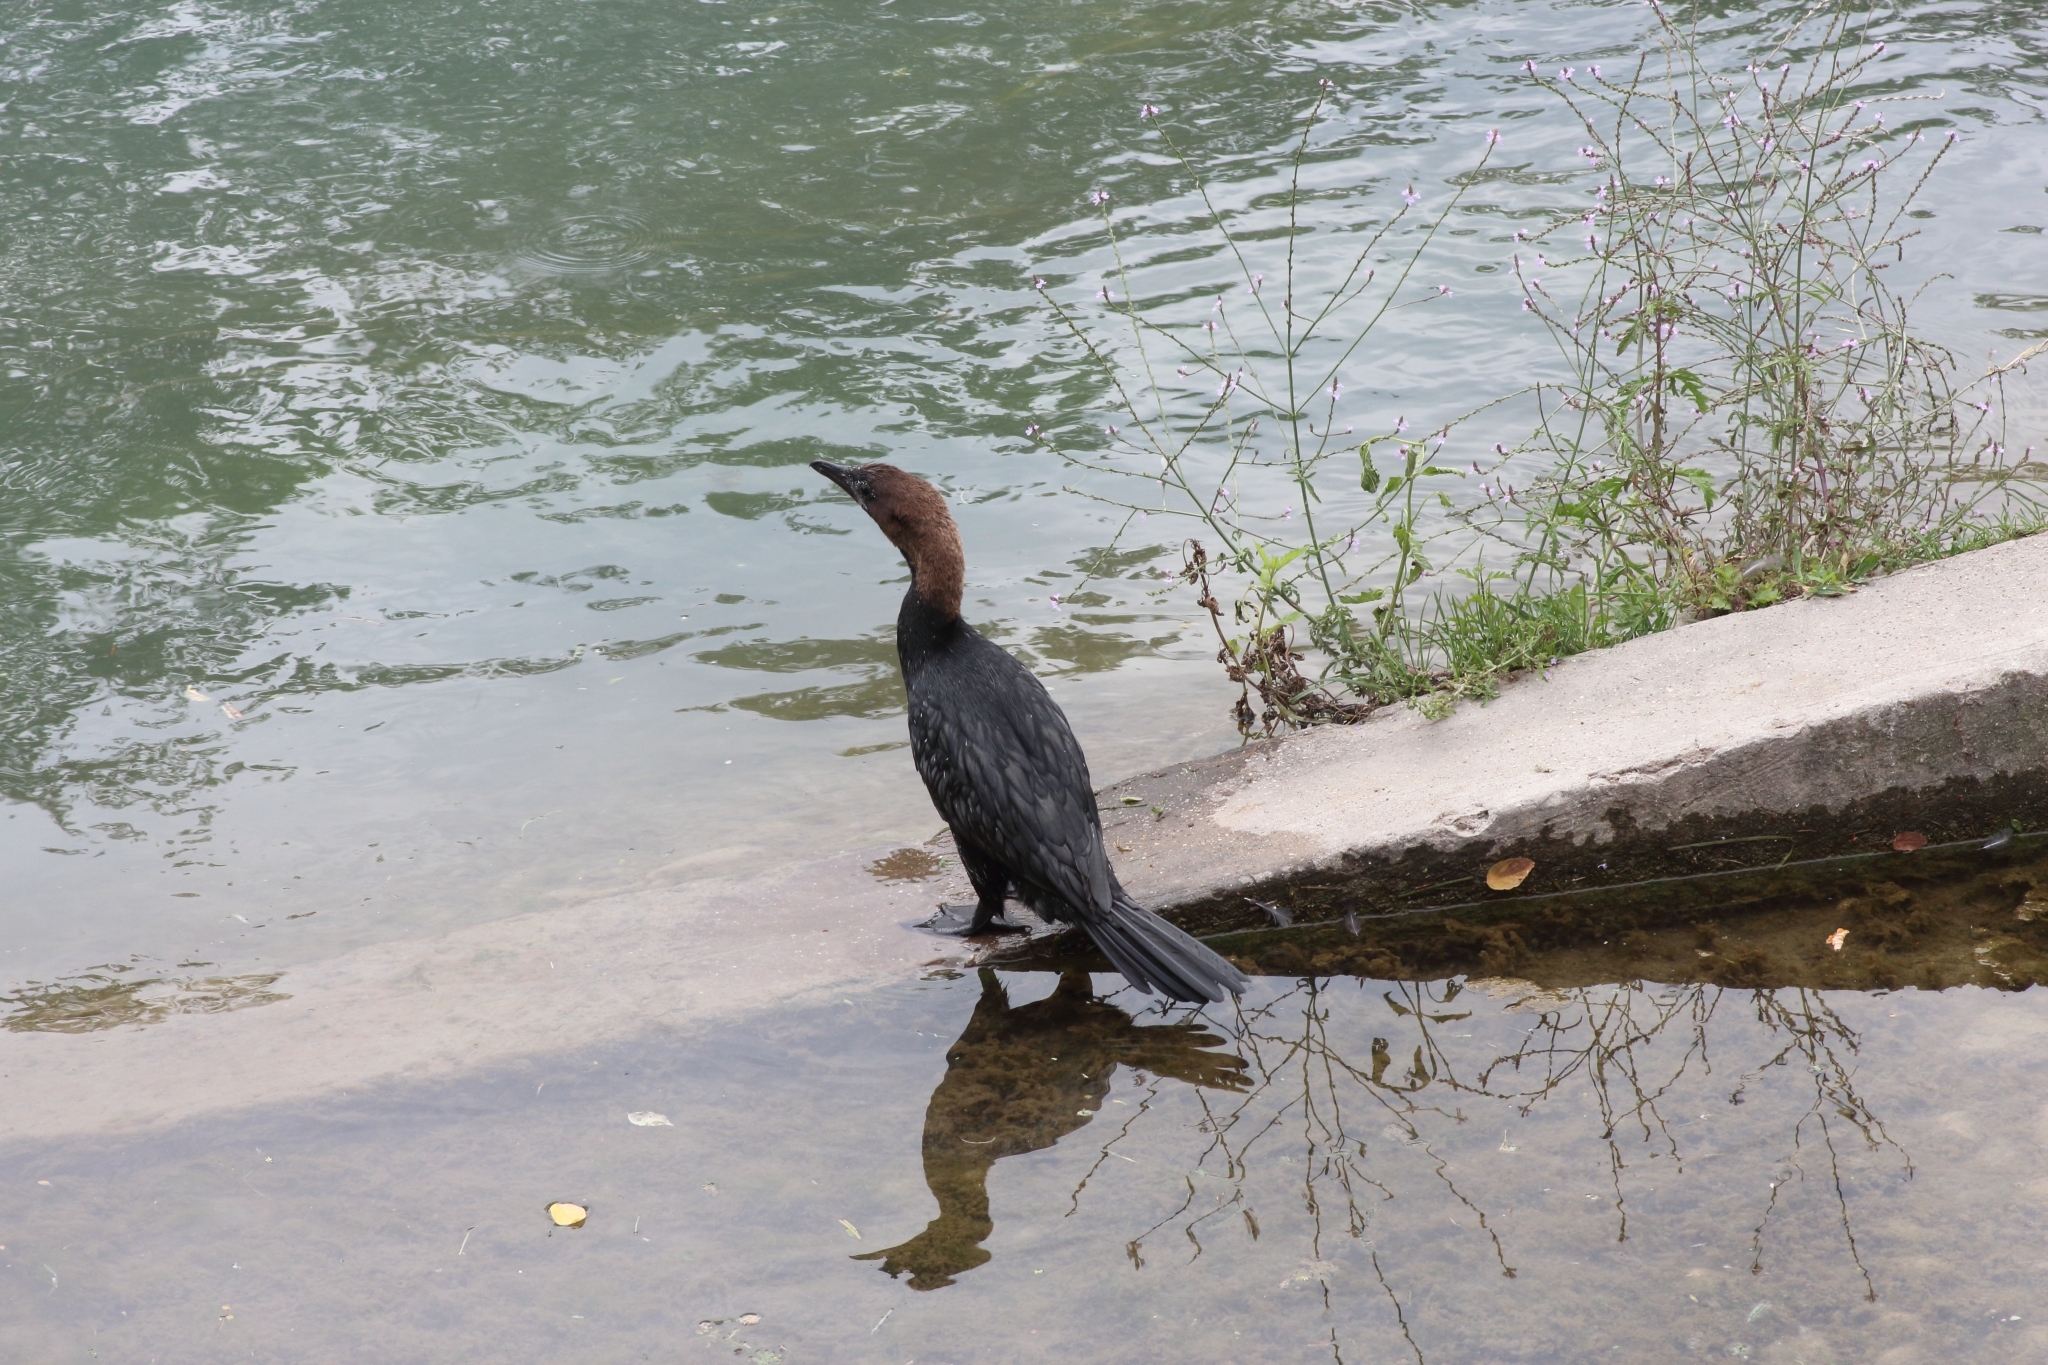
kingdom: Animalia
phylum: Chordata
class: Aves
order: Suliformes
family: Phalacrocoracidae
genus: Microcarbo
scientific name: Microcarbo pygmaeus
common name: Pygmy cormorant
